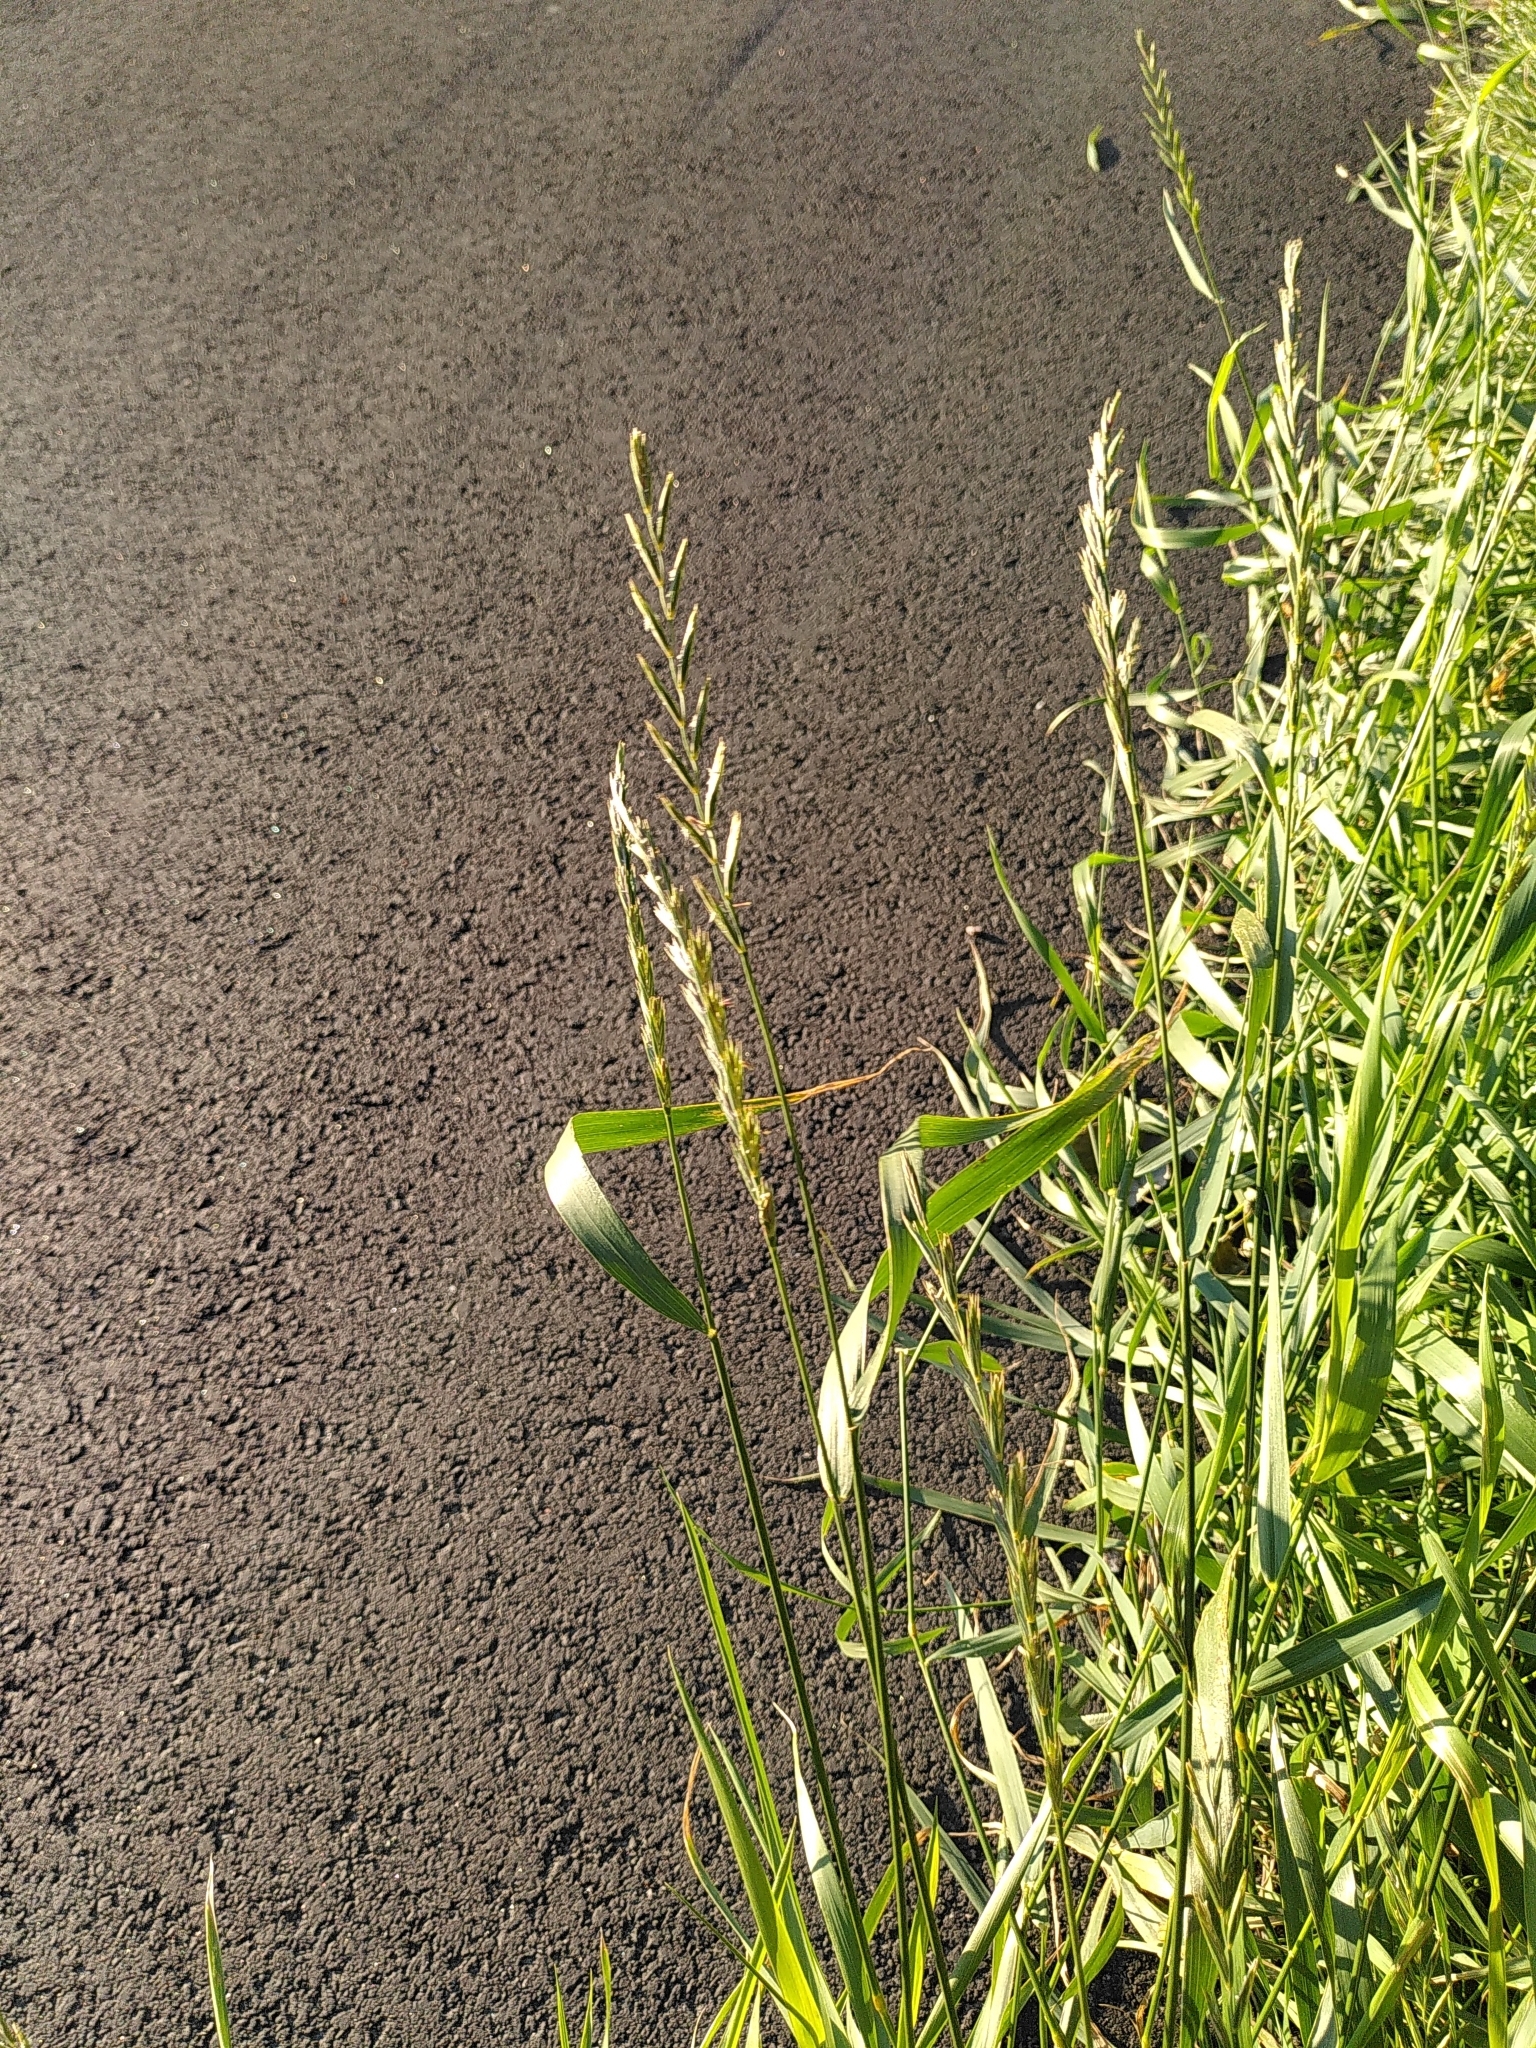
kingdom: Plantae
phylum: Tracheophyta
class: Liliopsida
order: Poales
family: Poaceae
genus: Elymus
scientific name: Elymus repens
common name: Quackgrass
